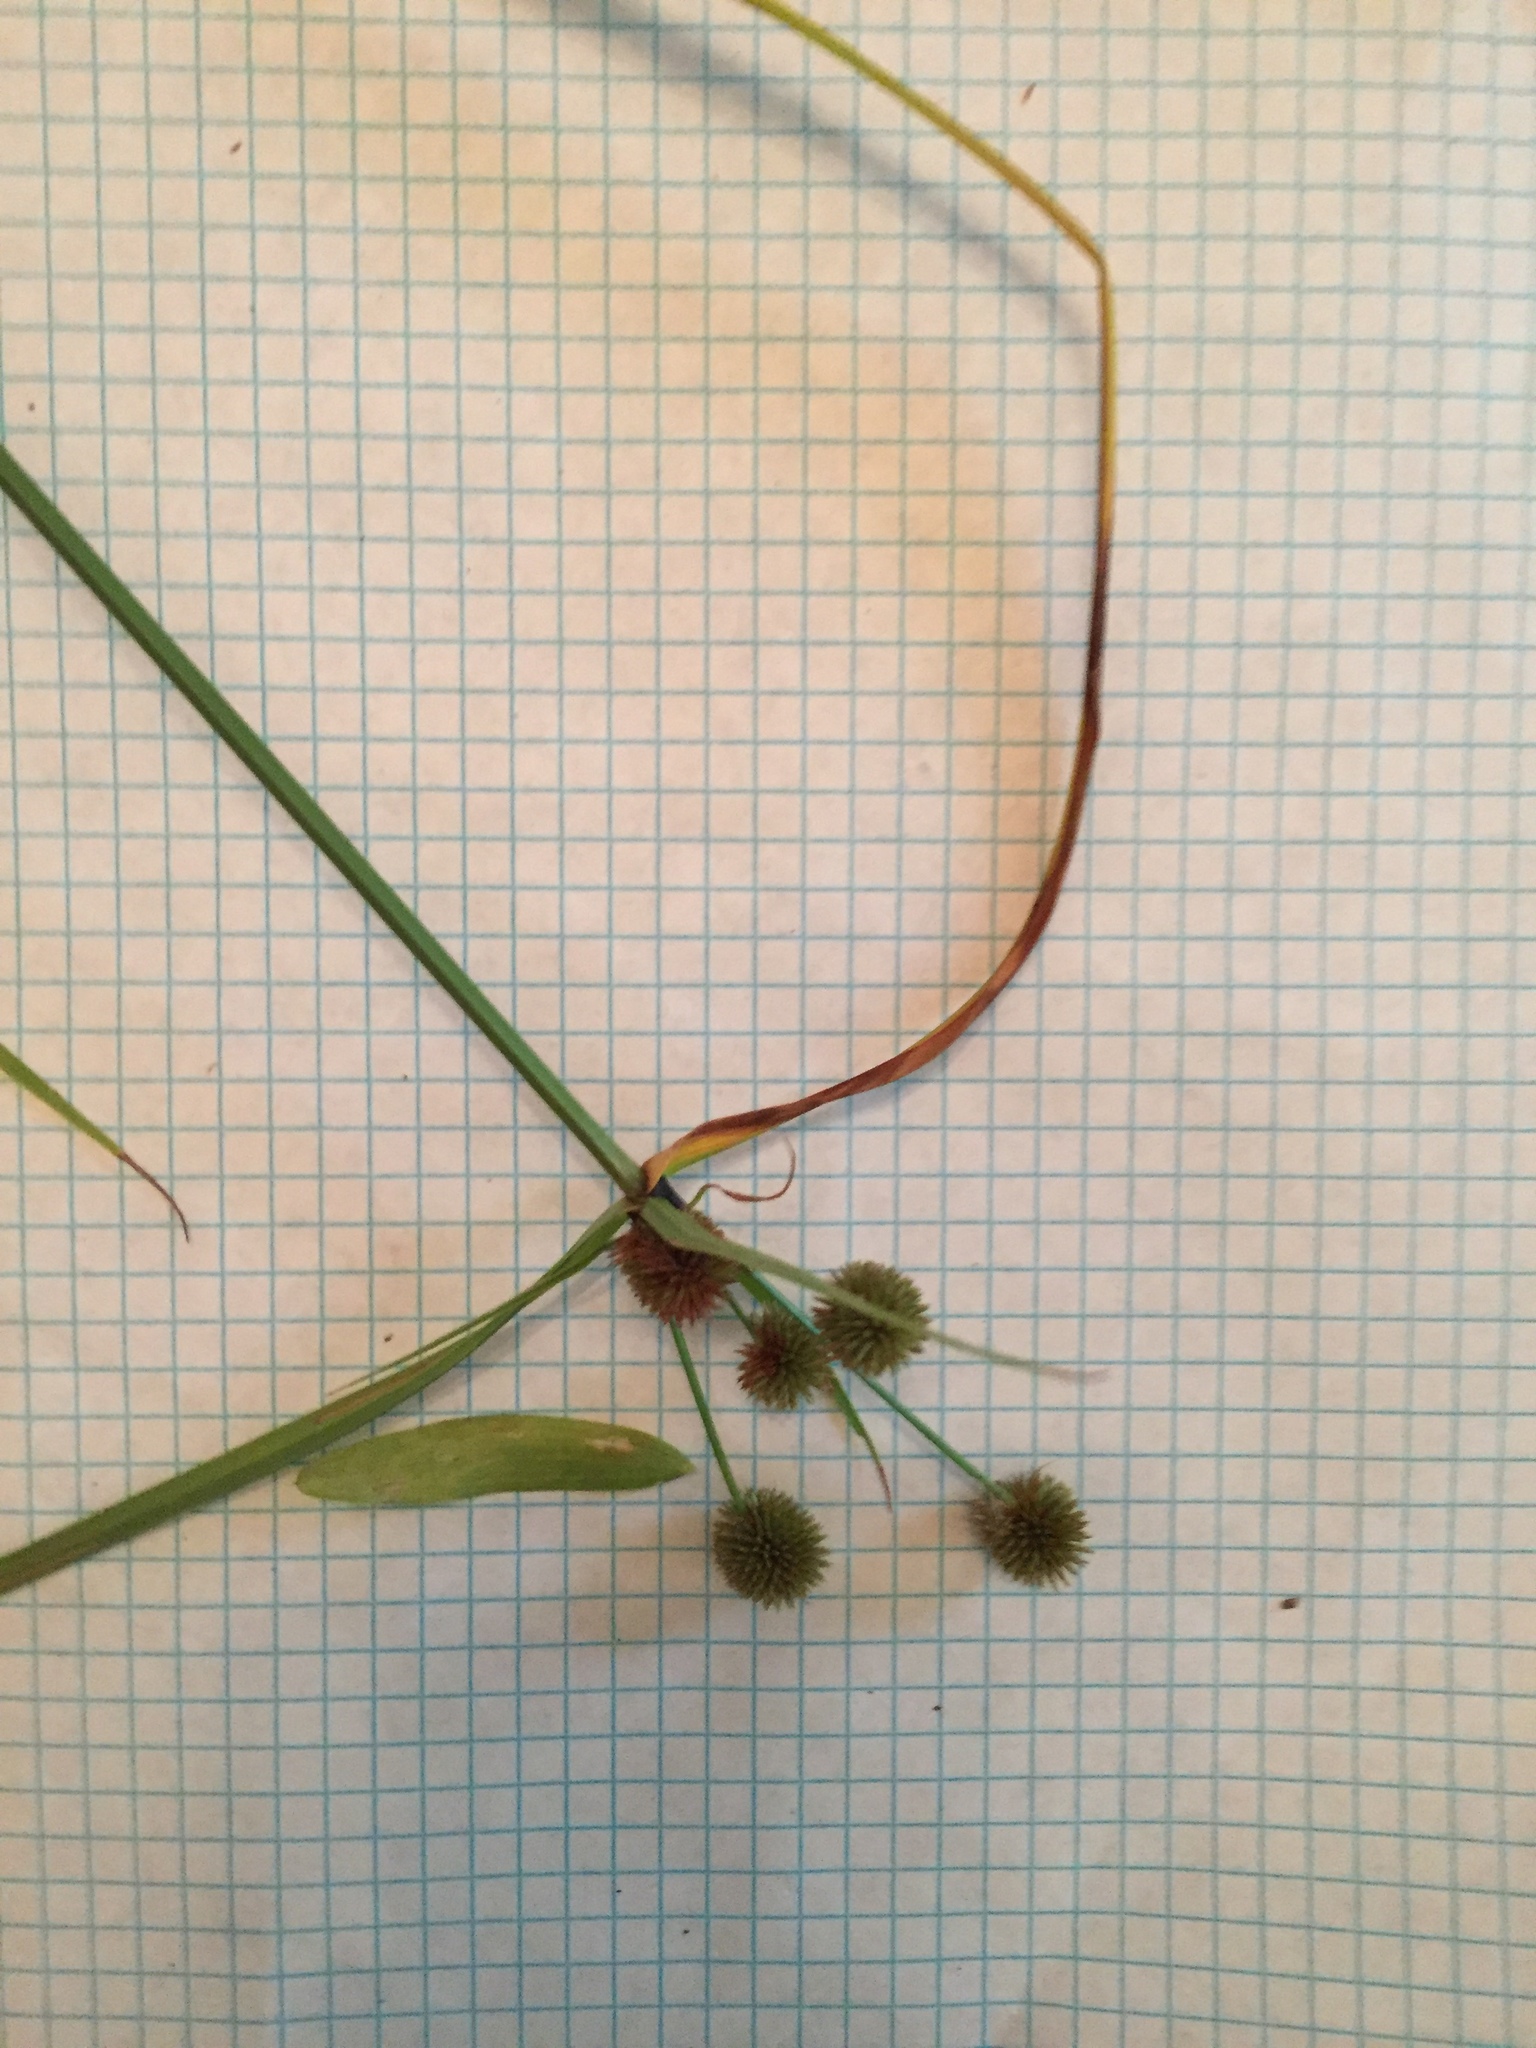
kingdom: Plantae
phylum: Tracheophyta
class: Liliopsida
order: Poales
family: Cyperaceae
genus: Cyperus
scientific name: Cyperus echinatus
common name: Teasel sedge
